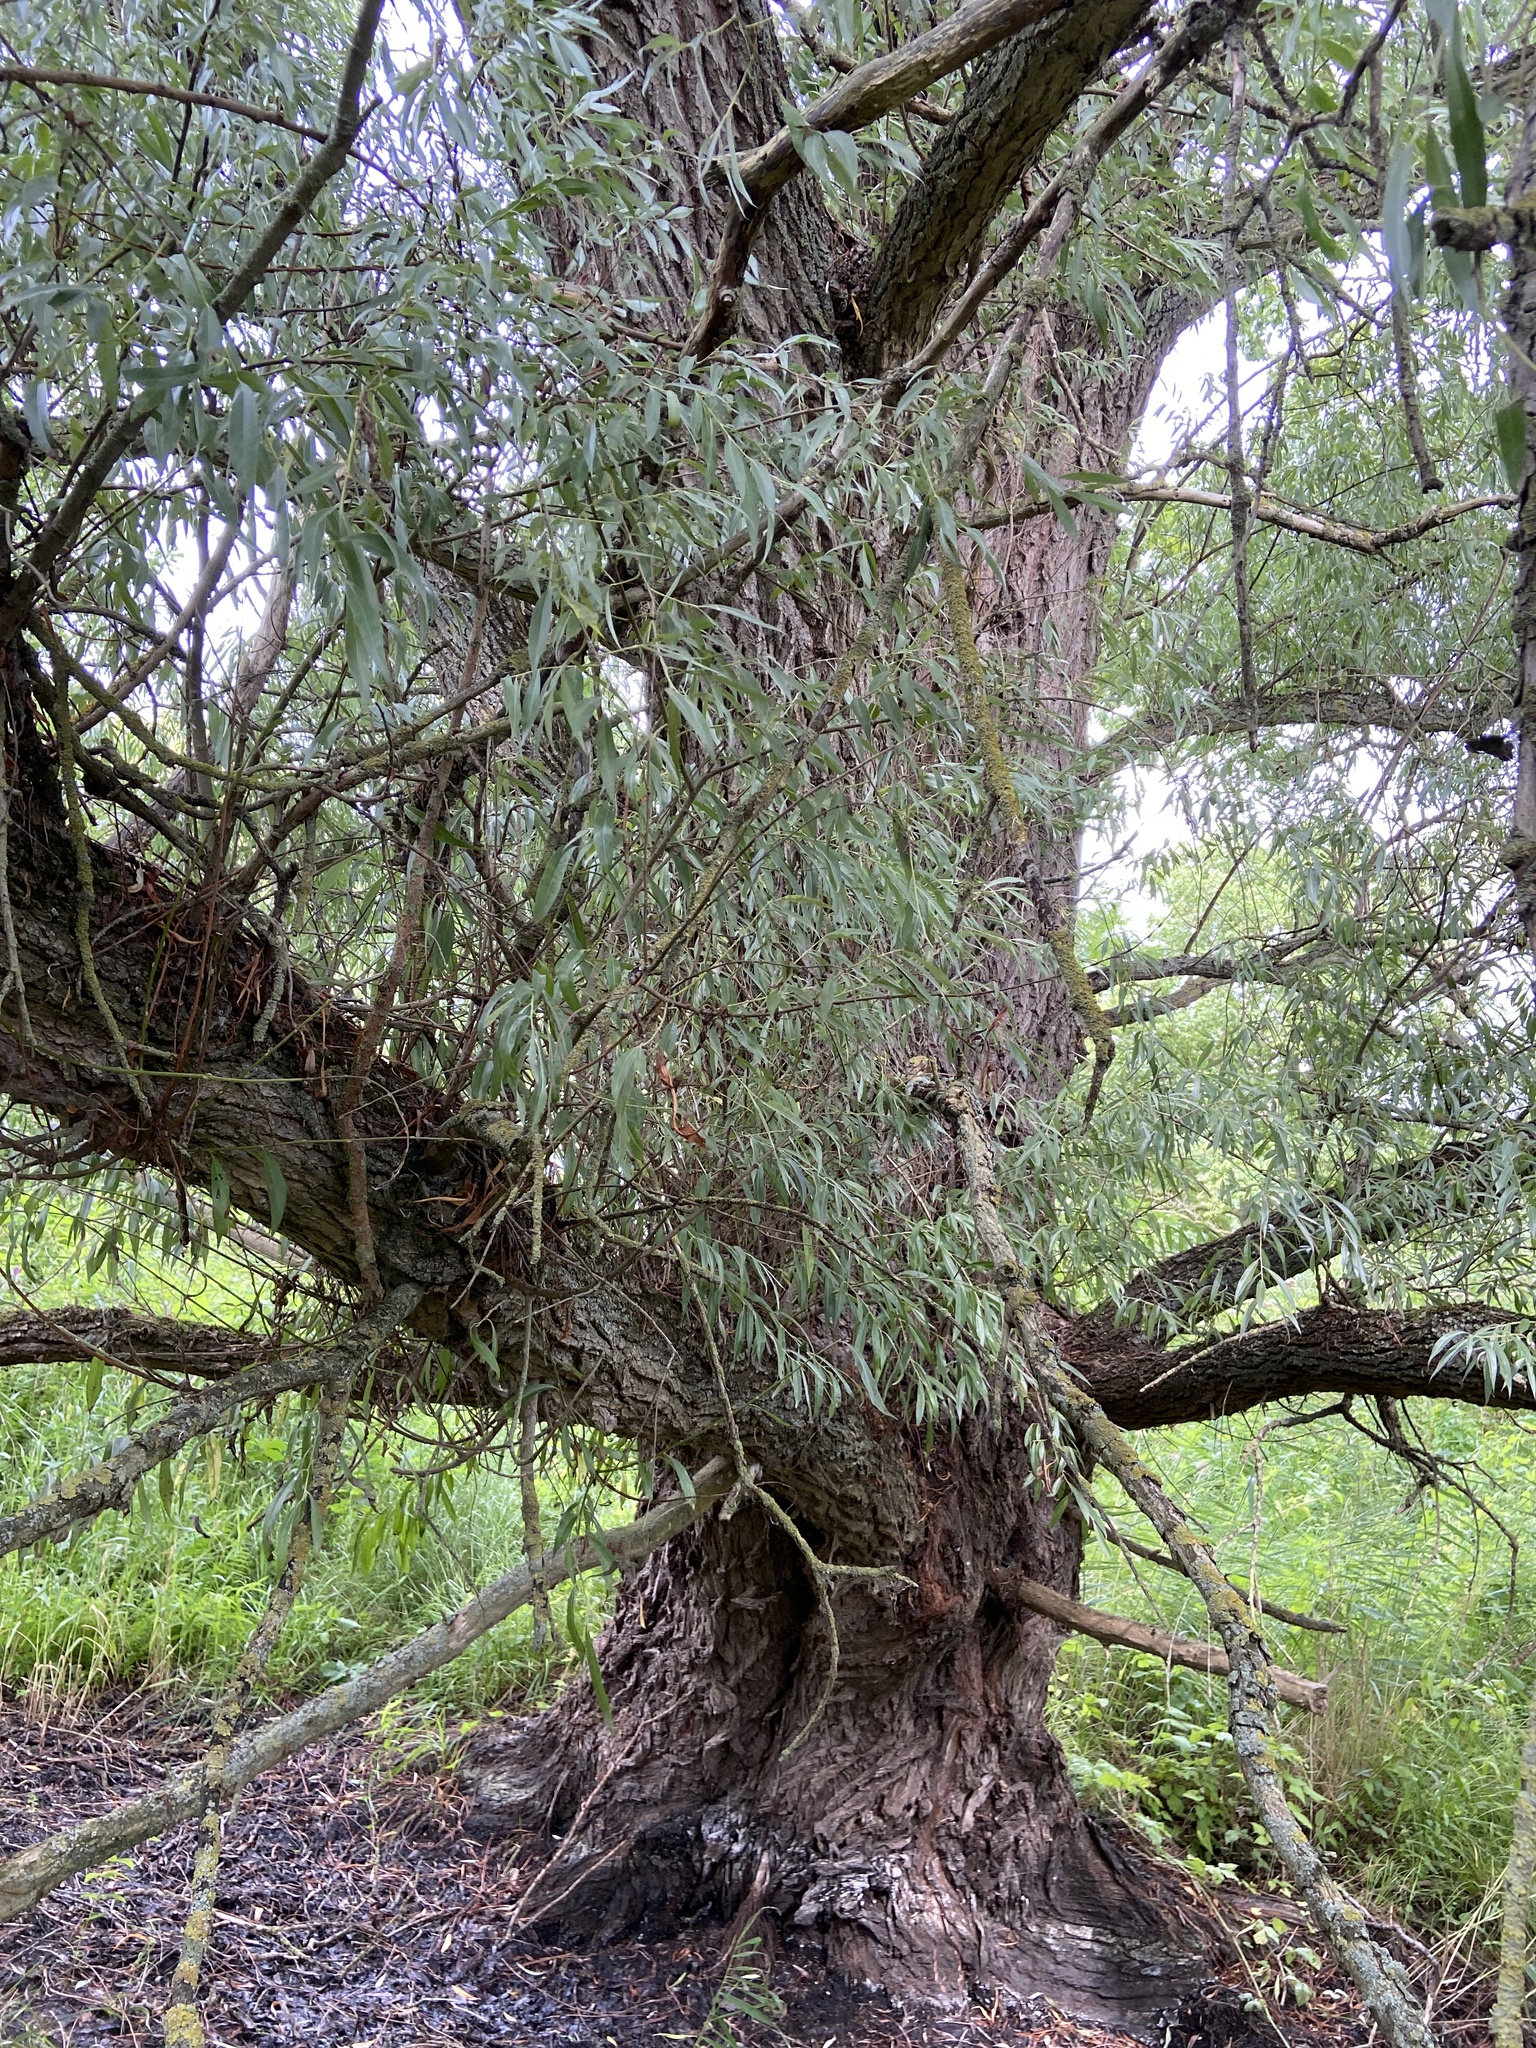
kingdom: Plantae
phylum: Tracheophyta
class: Magnoliopsida
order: Malpighiales
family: Salicaceae
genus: Salix
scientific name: Salix alba
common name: White willow
